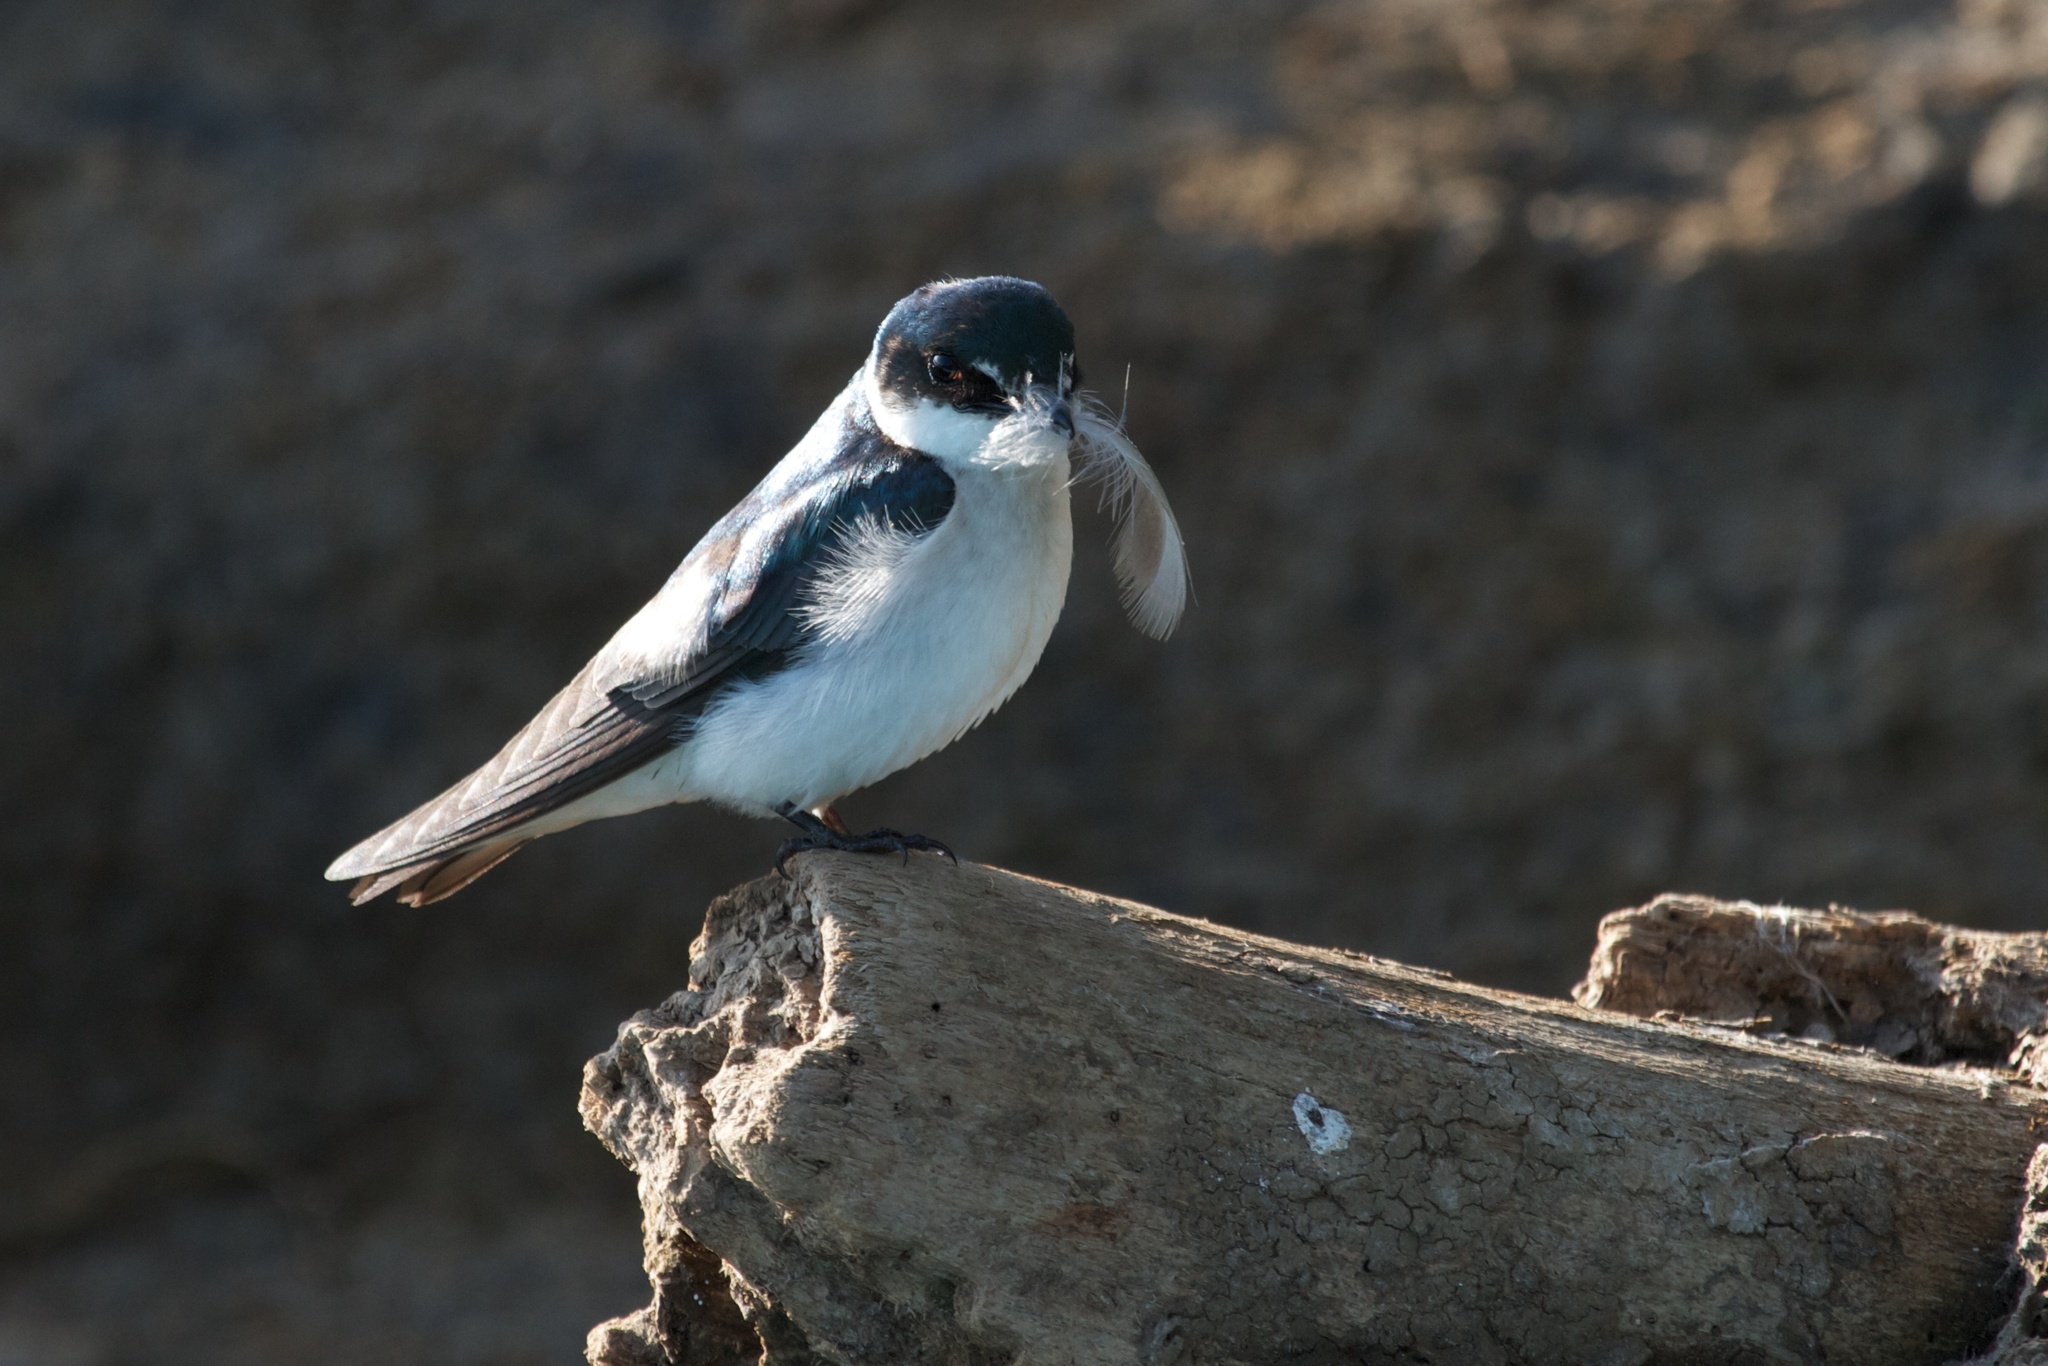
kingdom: Animalia
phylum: Chordata
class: Aves
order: Passeriformes
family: Hirundinidae
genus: Tachycineta
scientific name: Tachycineta albilinea
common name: Mangrove swallow
